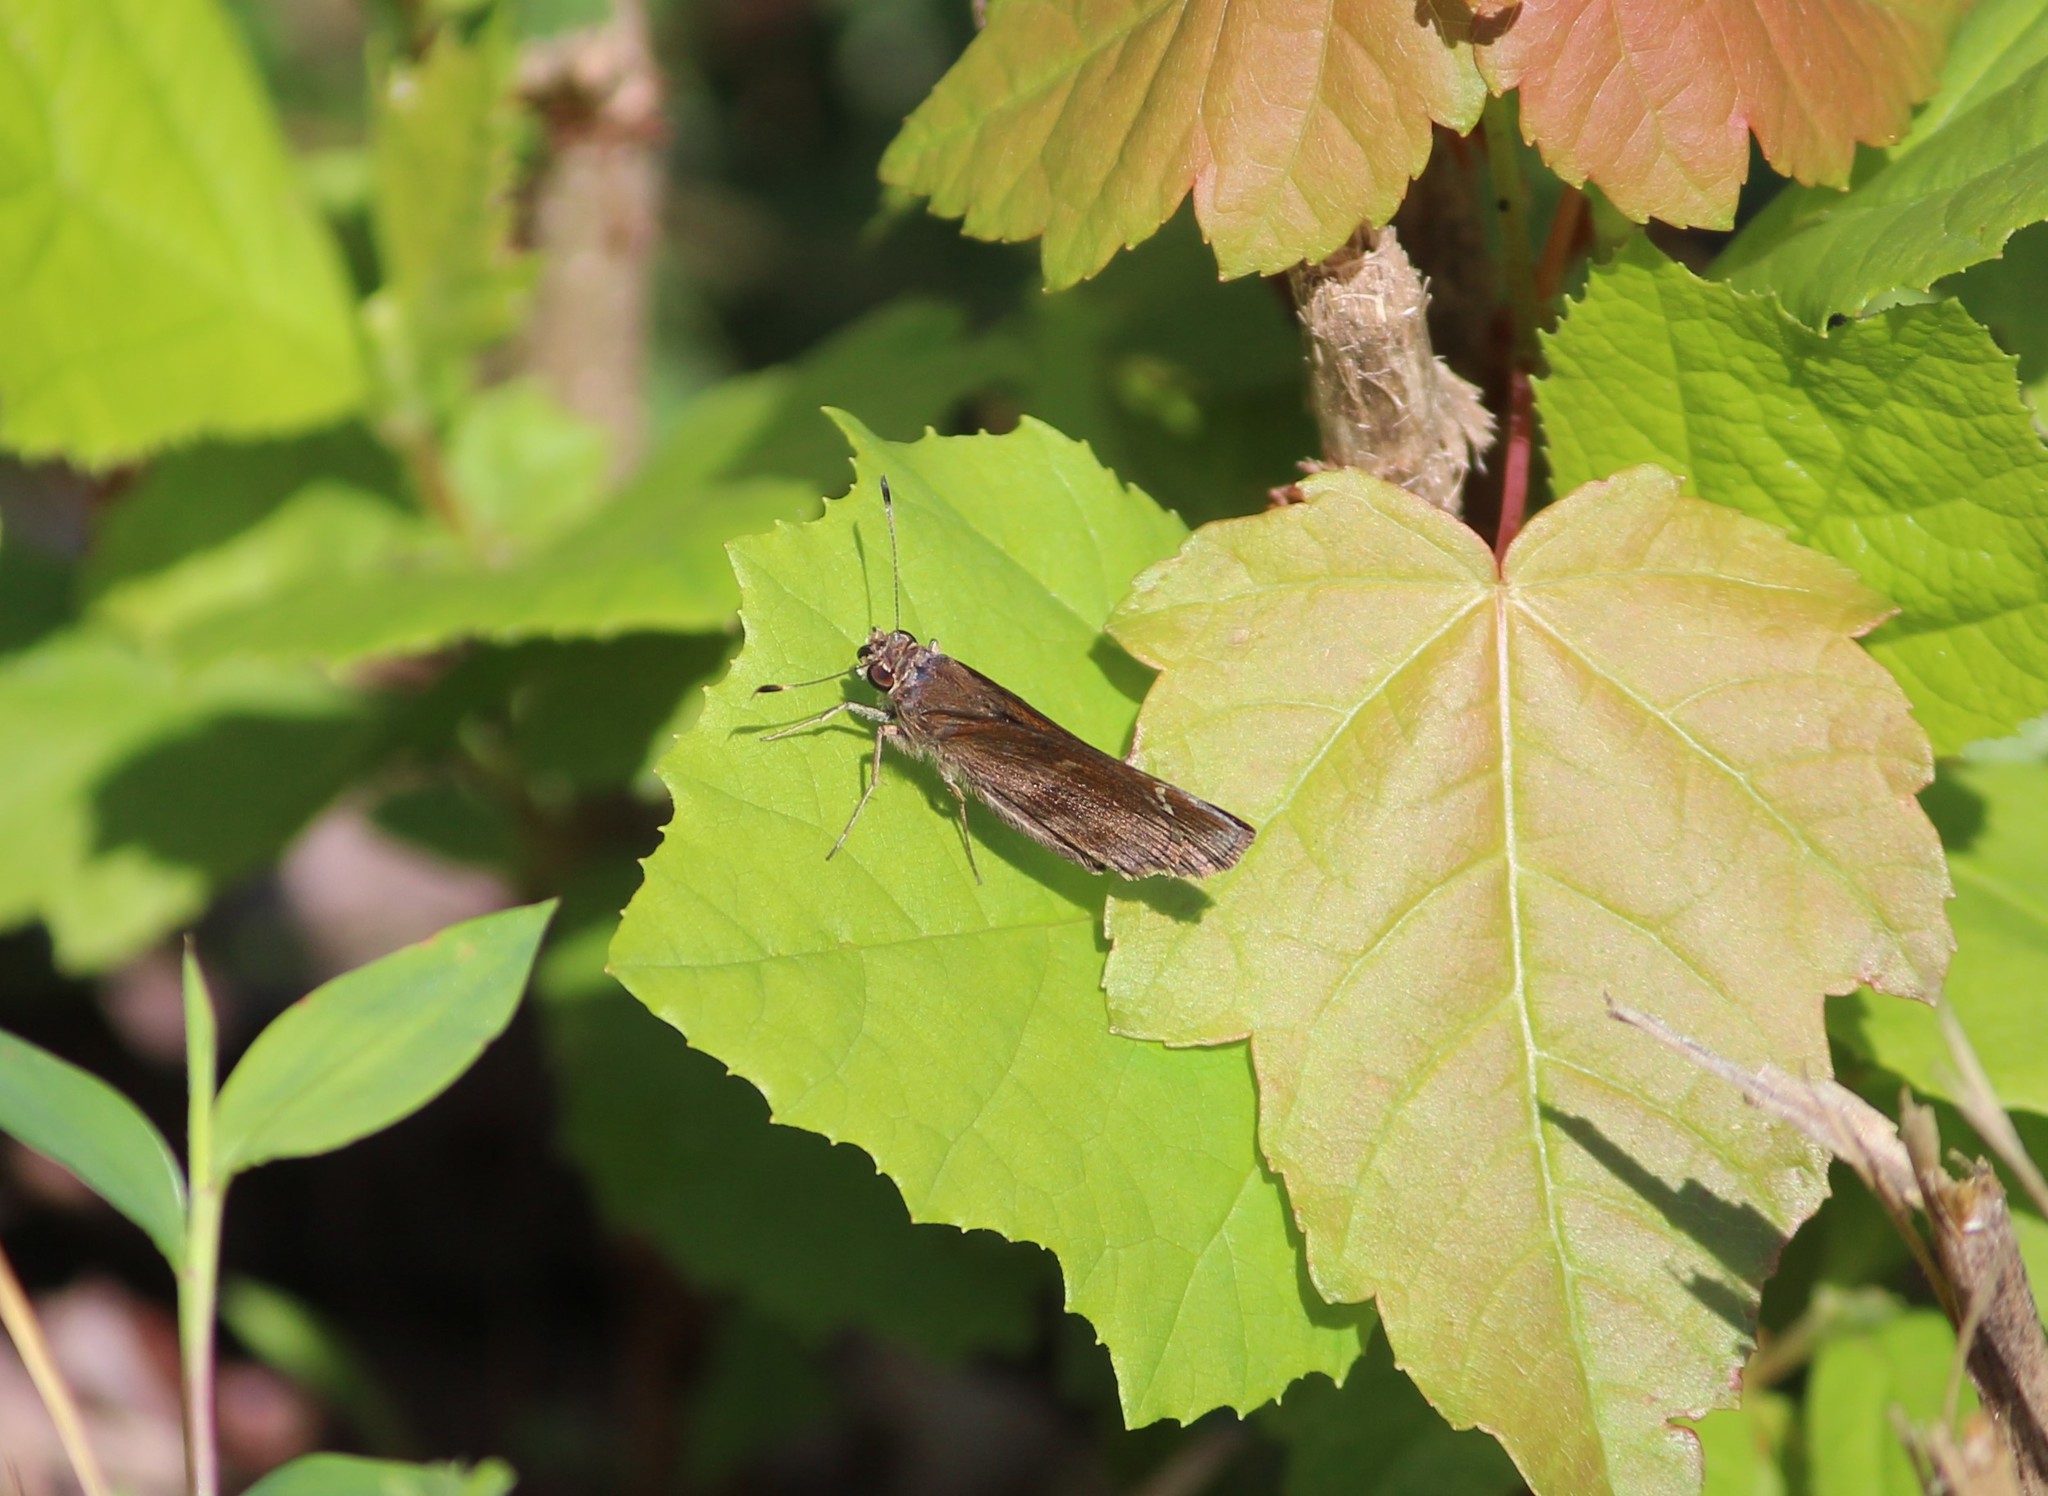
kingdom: Animalia
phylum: Arthropoda
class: Insecta
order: Lepidoptera
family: Hesperiidae
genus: Lerema
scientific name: Lerema accius
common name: Clouded skipper
